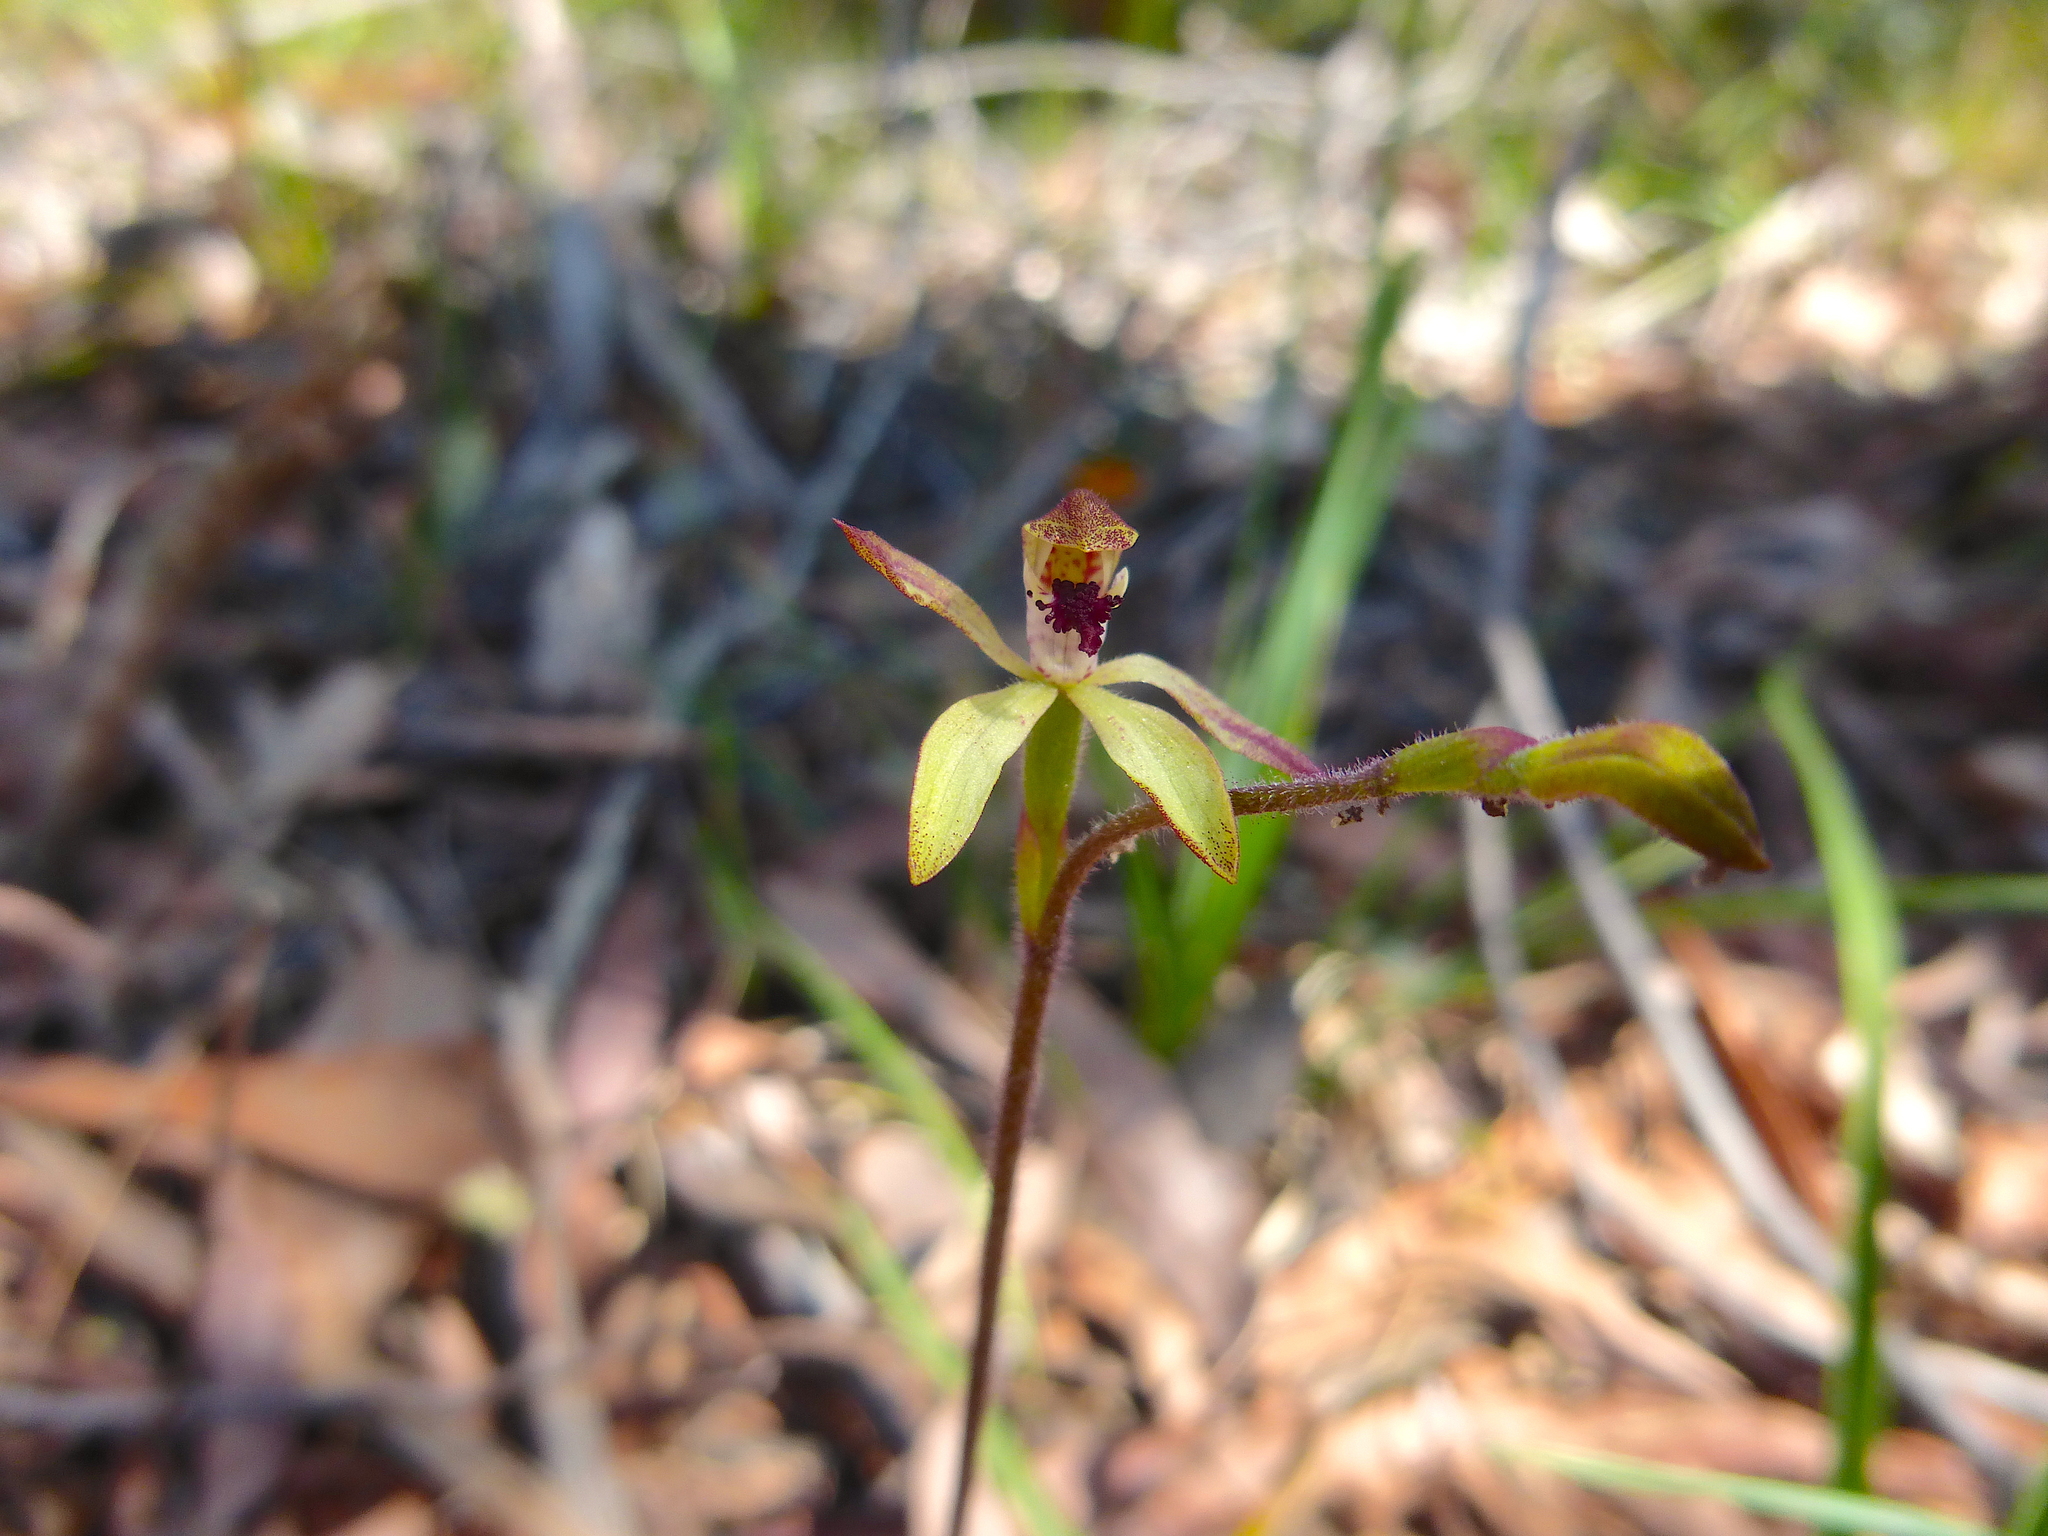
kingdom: Plantae
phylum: Tracheophyta
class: Liliopsida
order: Asparagales
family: Orchidaceae
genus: Caladenia
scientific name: Caladenia transitoria
